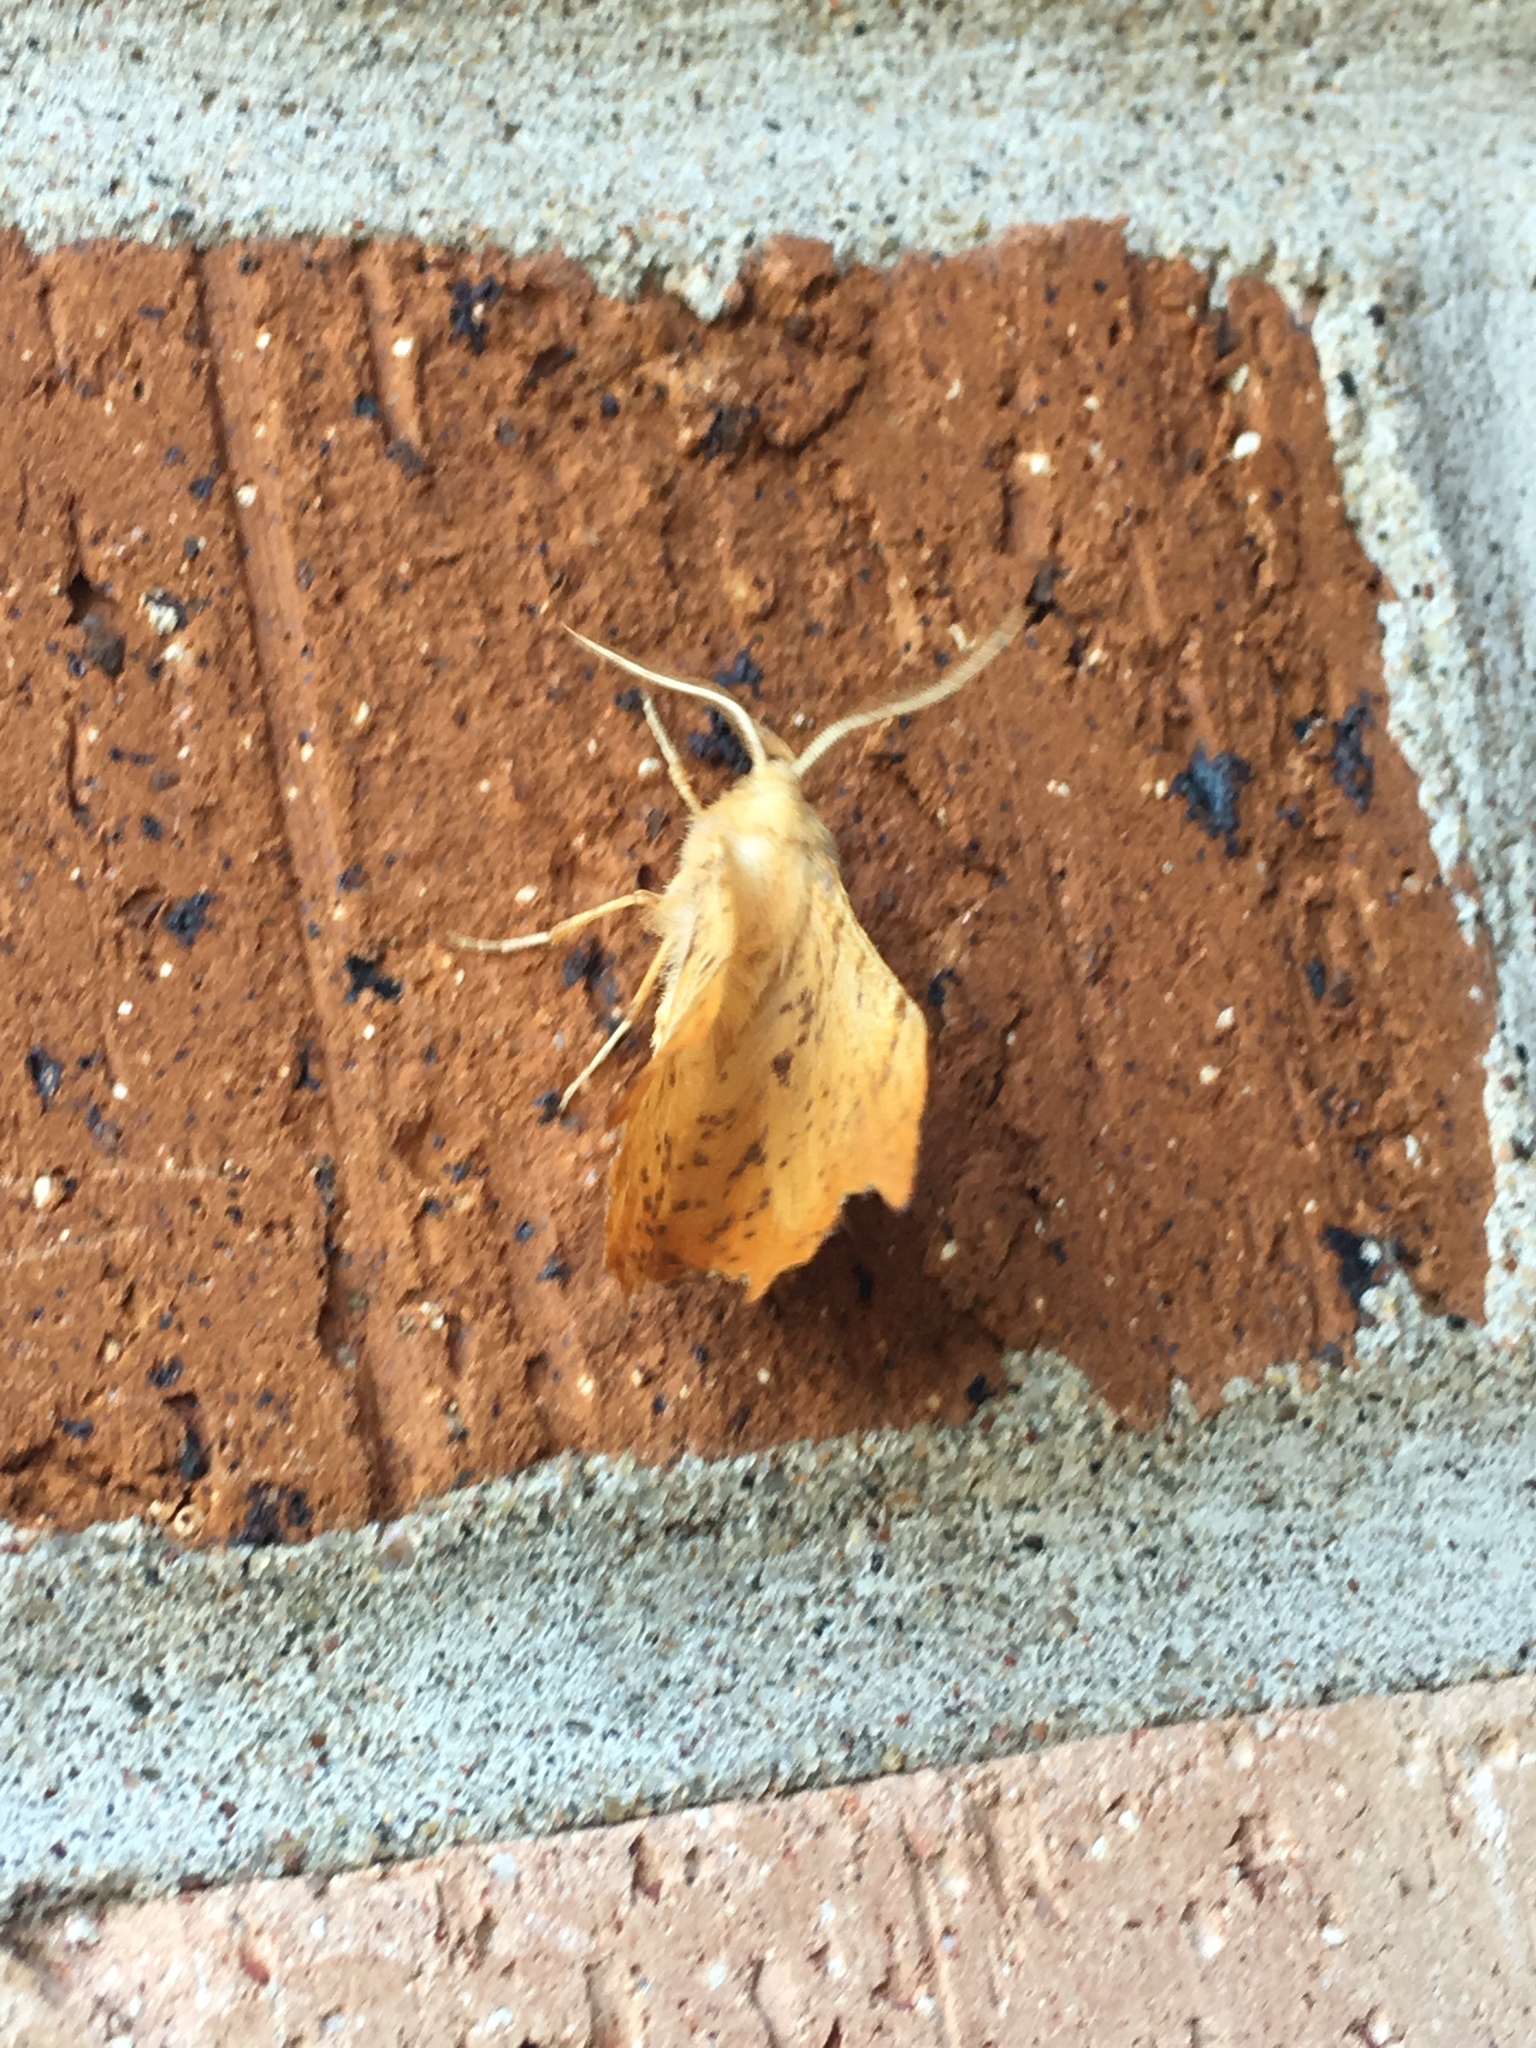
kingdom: Animalia
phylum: Arthropoda
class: Insecta
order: Lepidoptera
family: Geometridae
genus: Ennomos
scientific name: Ennomos magnaria
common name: Maple spanworm
